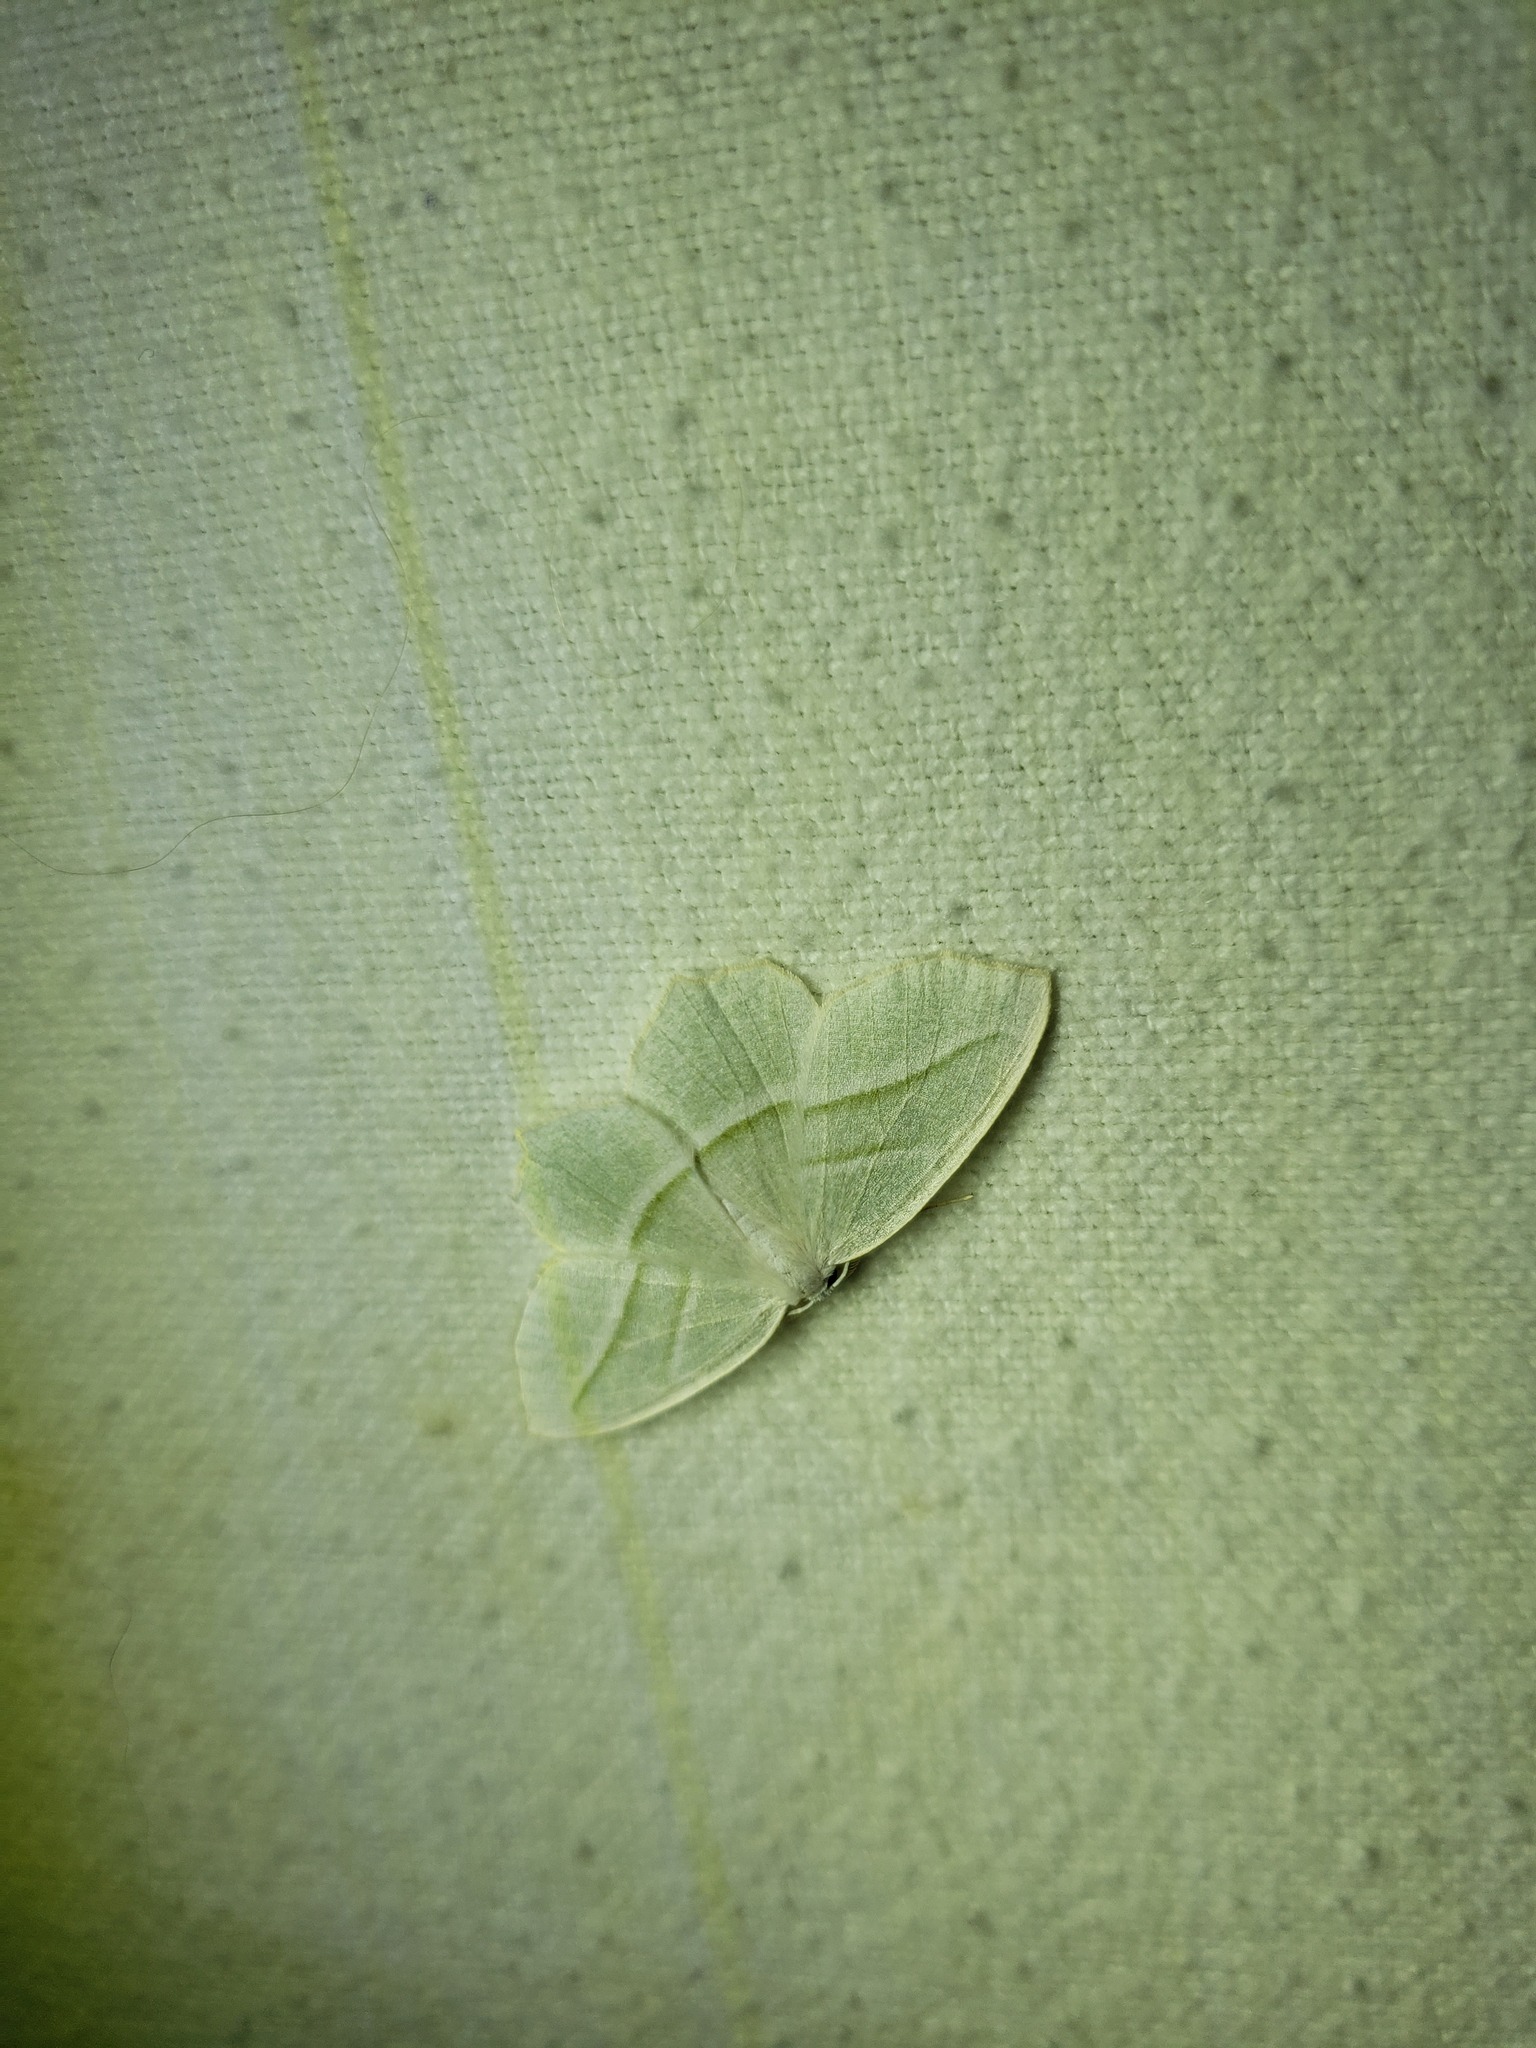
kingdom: Animalia
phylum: Arthropoda
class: Insecta
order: Lepidoptera
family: Geometridae
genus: Campaea
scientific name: Campaea perlata
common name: Fringed looper
